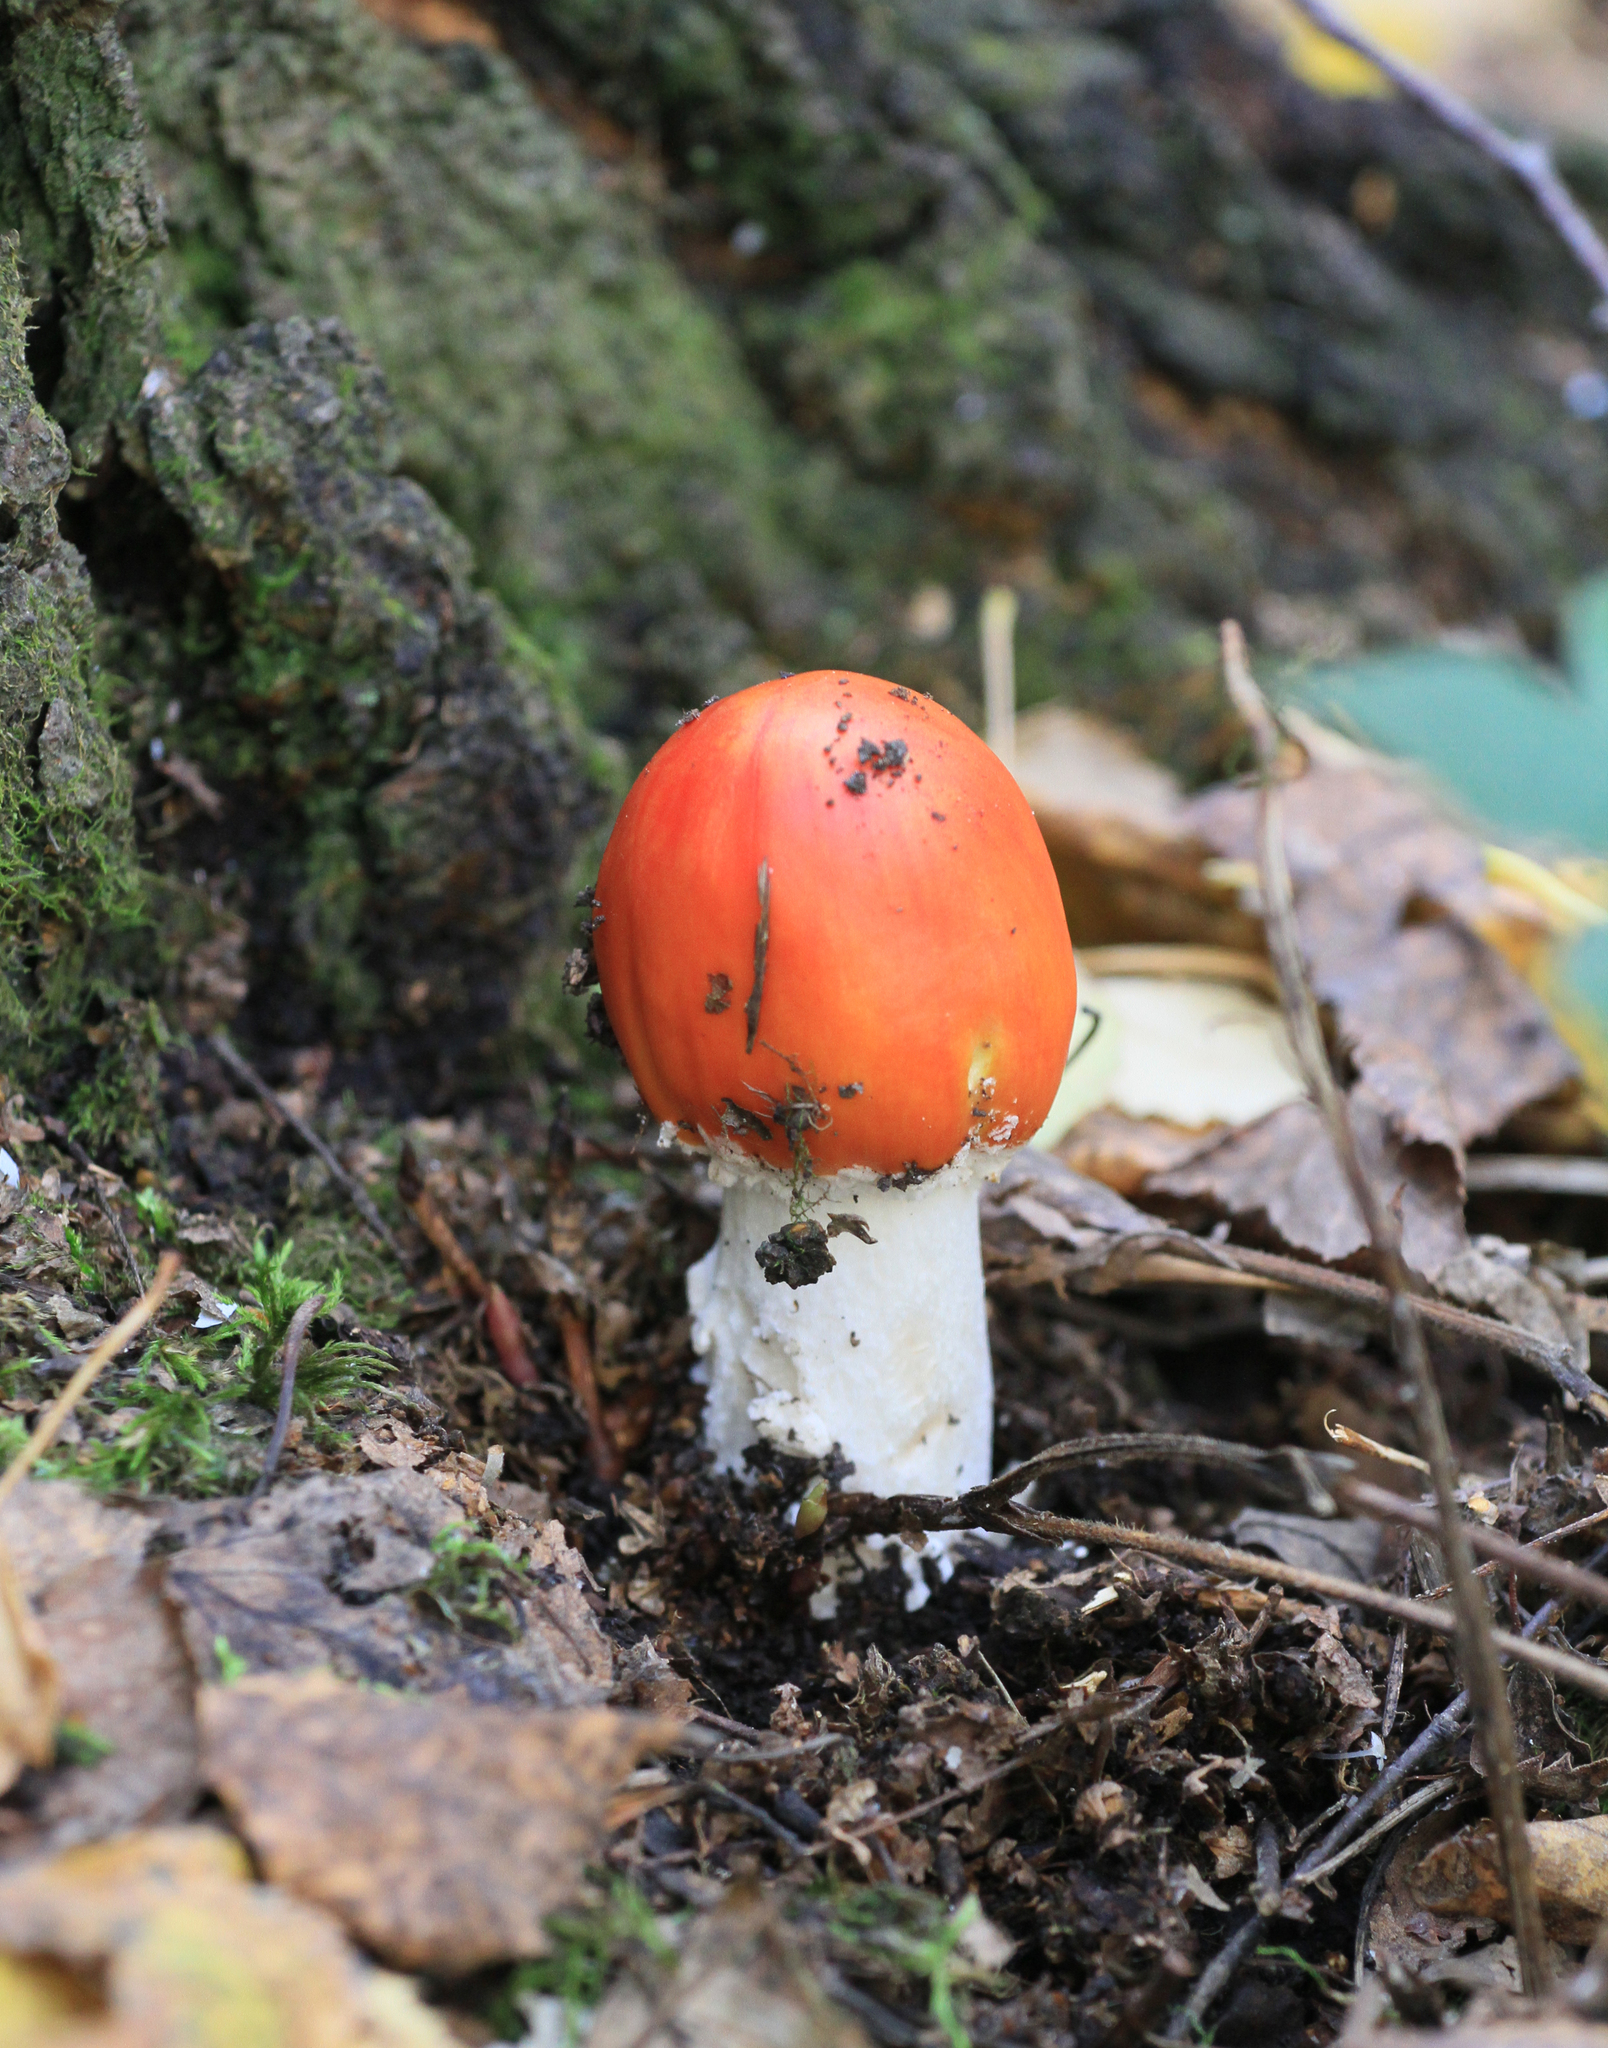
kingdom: Fungi
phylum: Basidiomycota
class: Agaricomycetes
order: Agaricales
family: Amanitaceae
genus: Amanita
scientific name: Amanita muscaria
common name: Fly agaric
